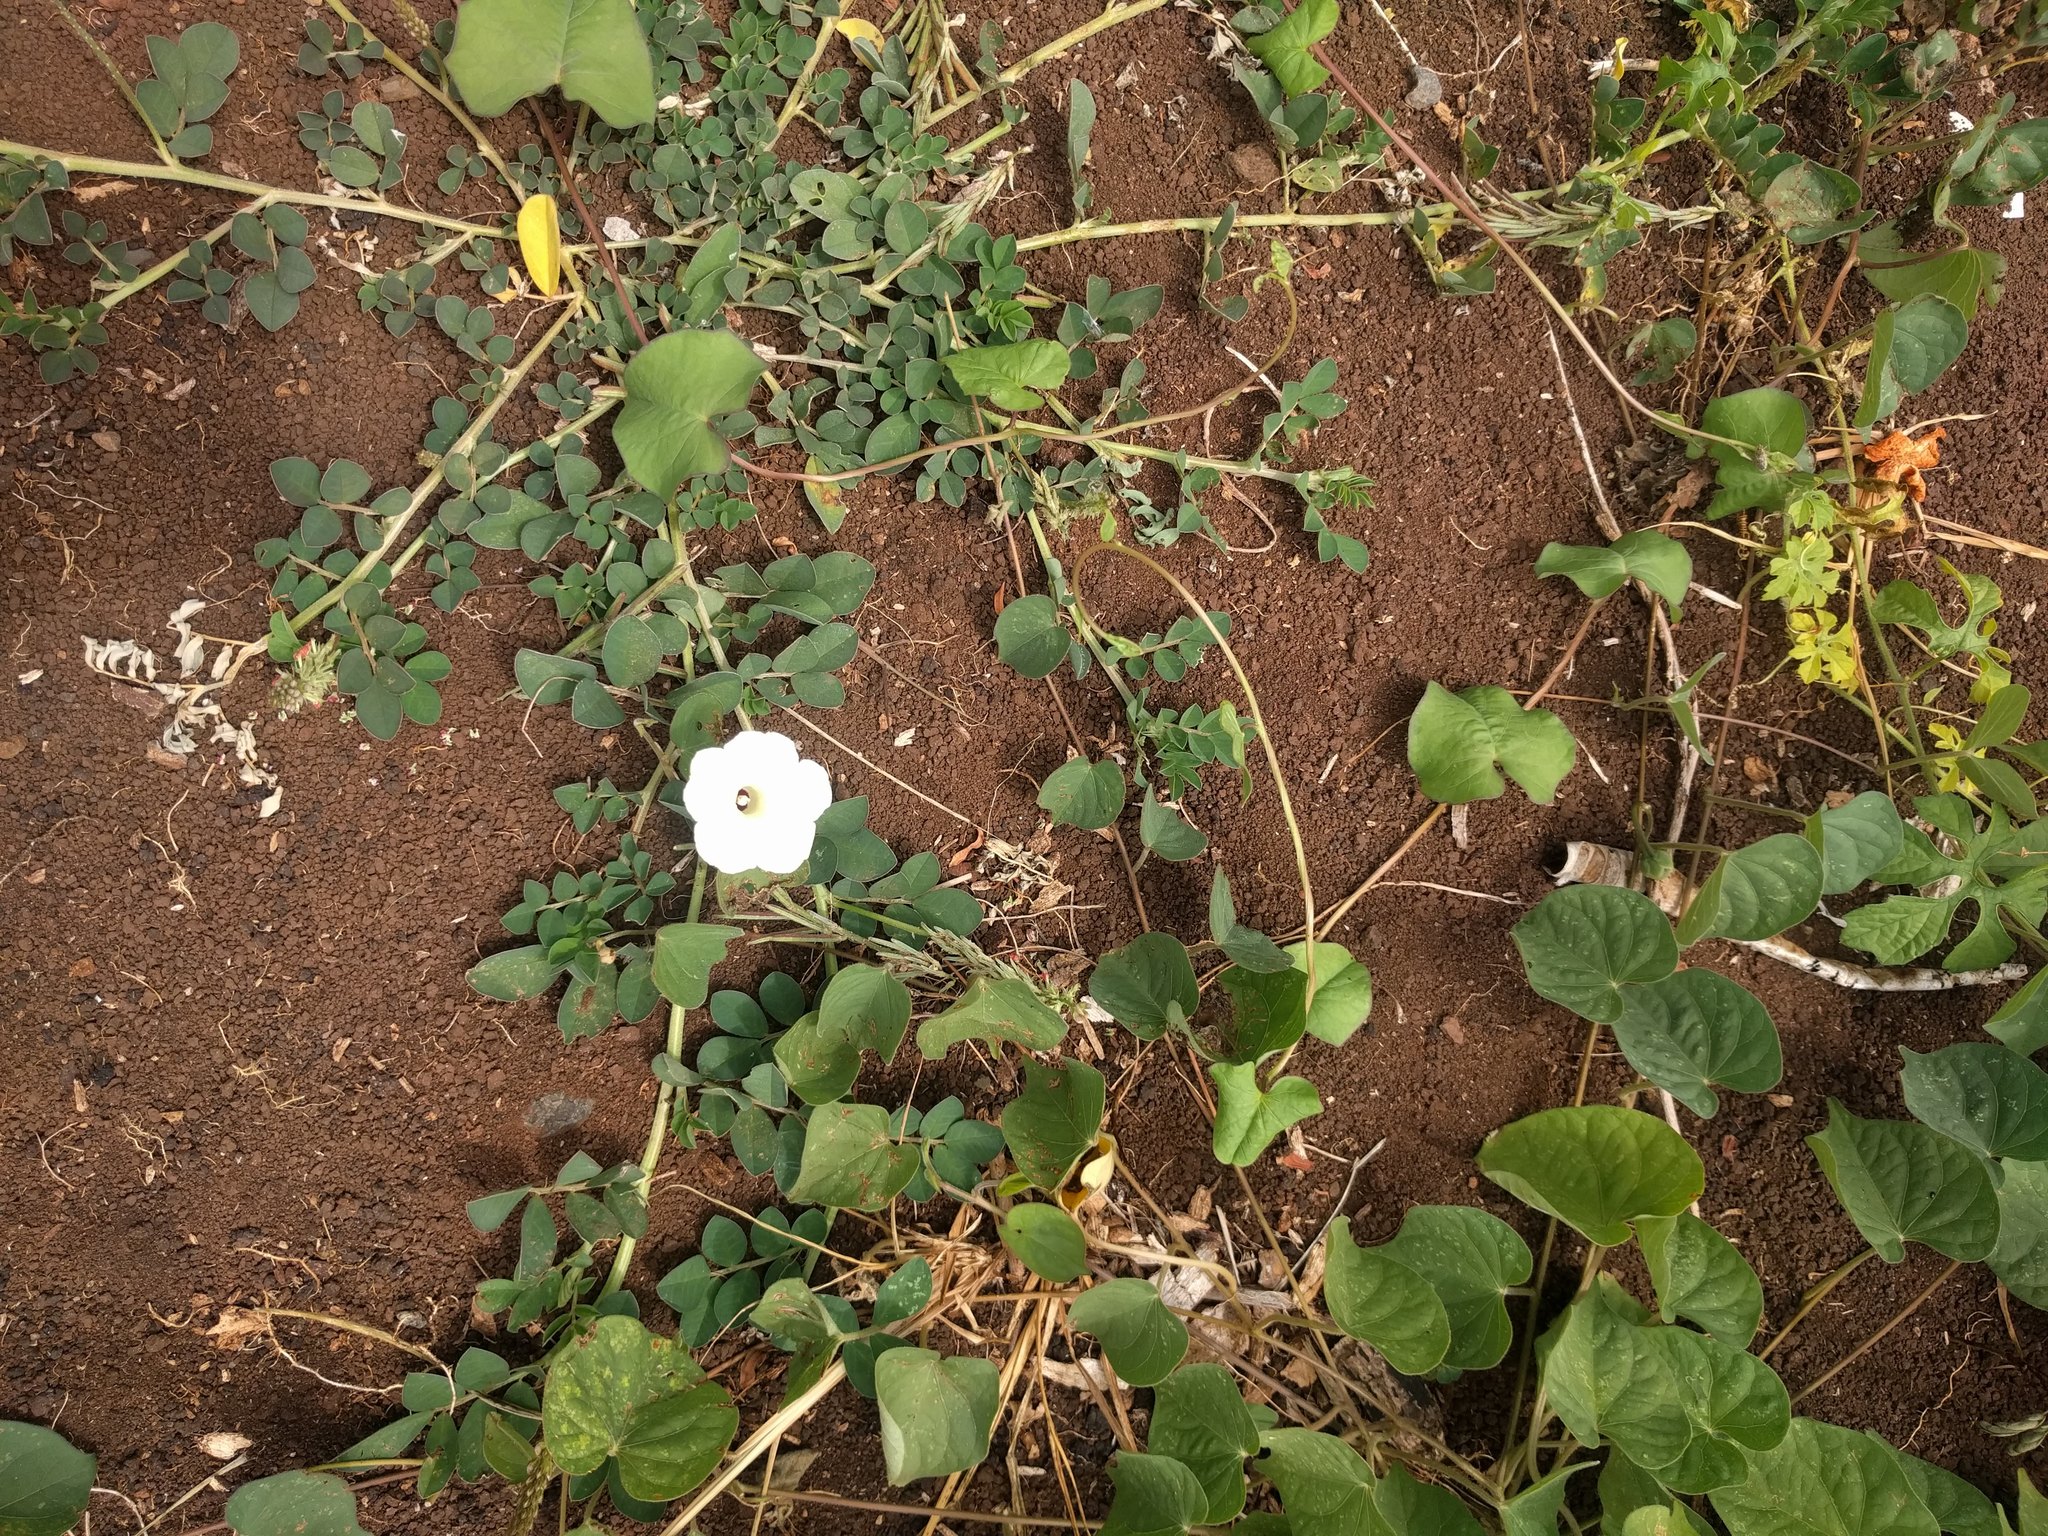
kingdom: Plantae
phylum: Tracheophyta
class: Magnoliopsida
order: Solanales
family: Convolvulaceae
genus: Ipomoea
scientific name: Ipomoea obscura
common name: Obscure morning-glory
